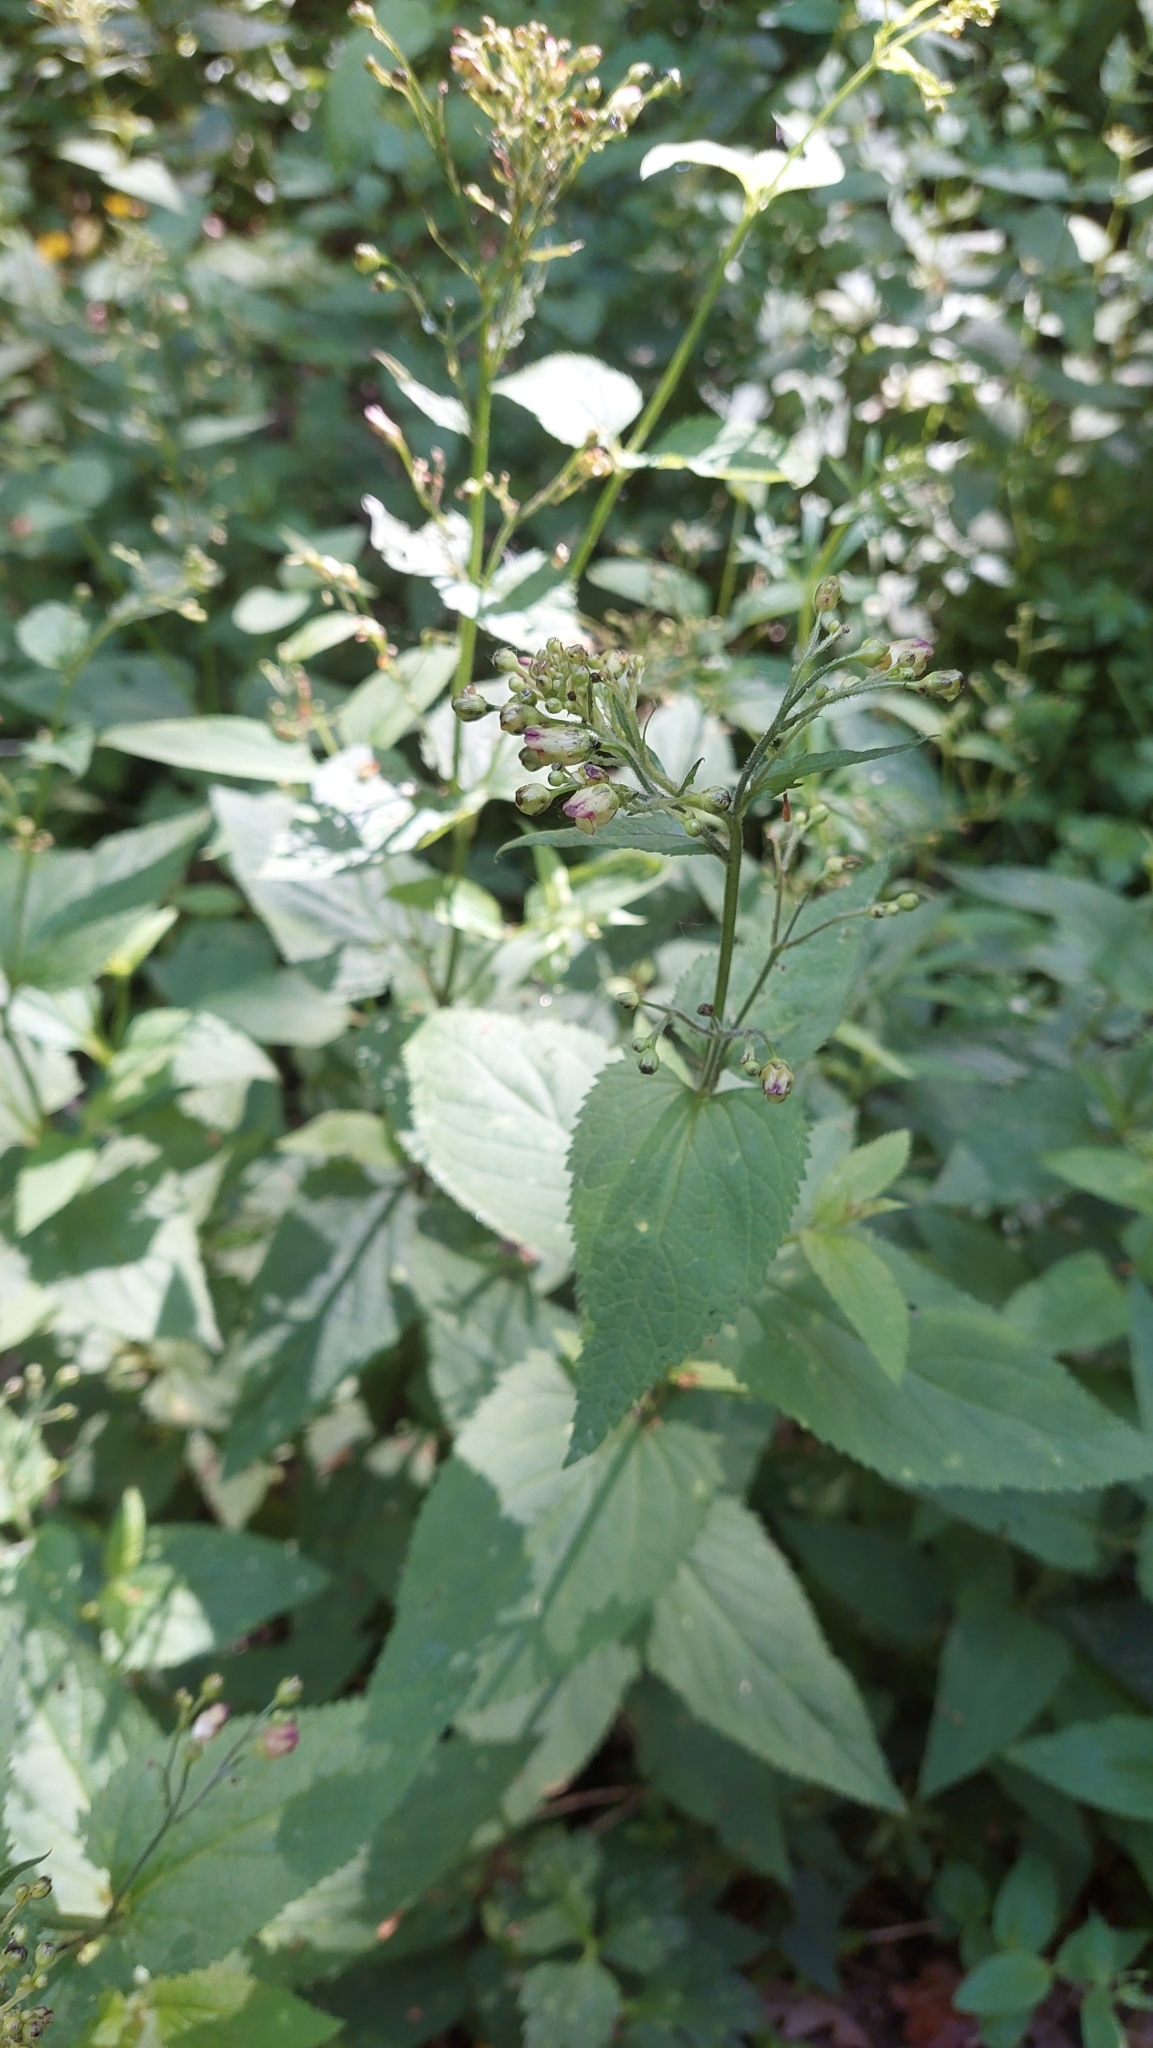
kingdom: Plantae
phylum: Tracheophyta
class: Magnoliopsida
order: Lamiales
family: Scrophulariaceae
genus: Scrophularia
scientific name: Scrophularia nodosa
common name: Common figwort
